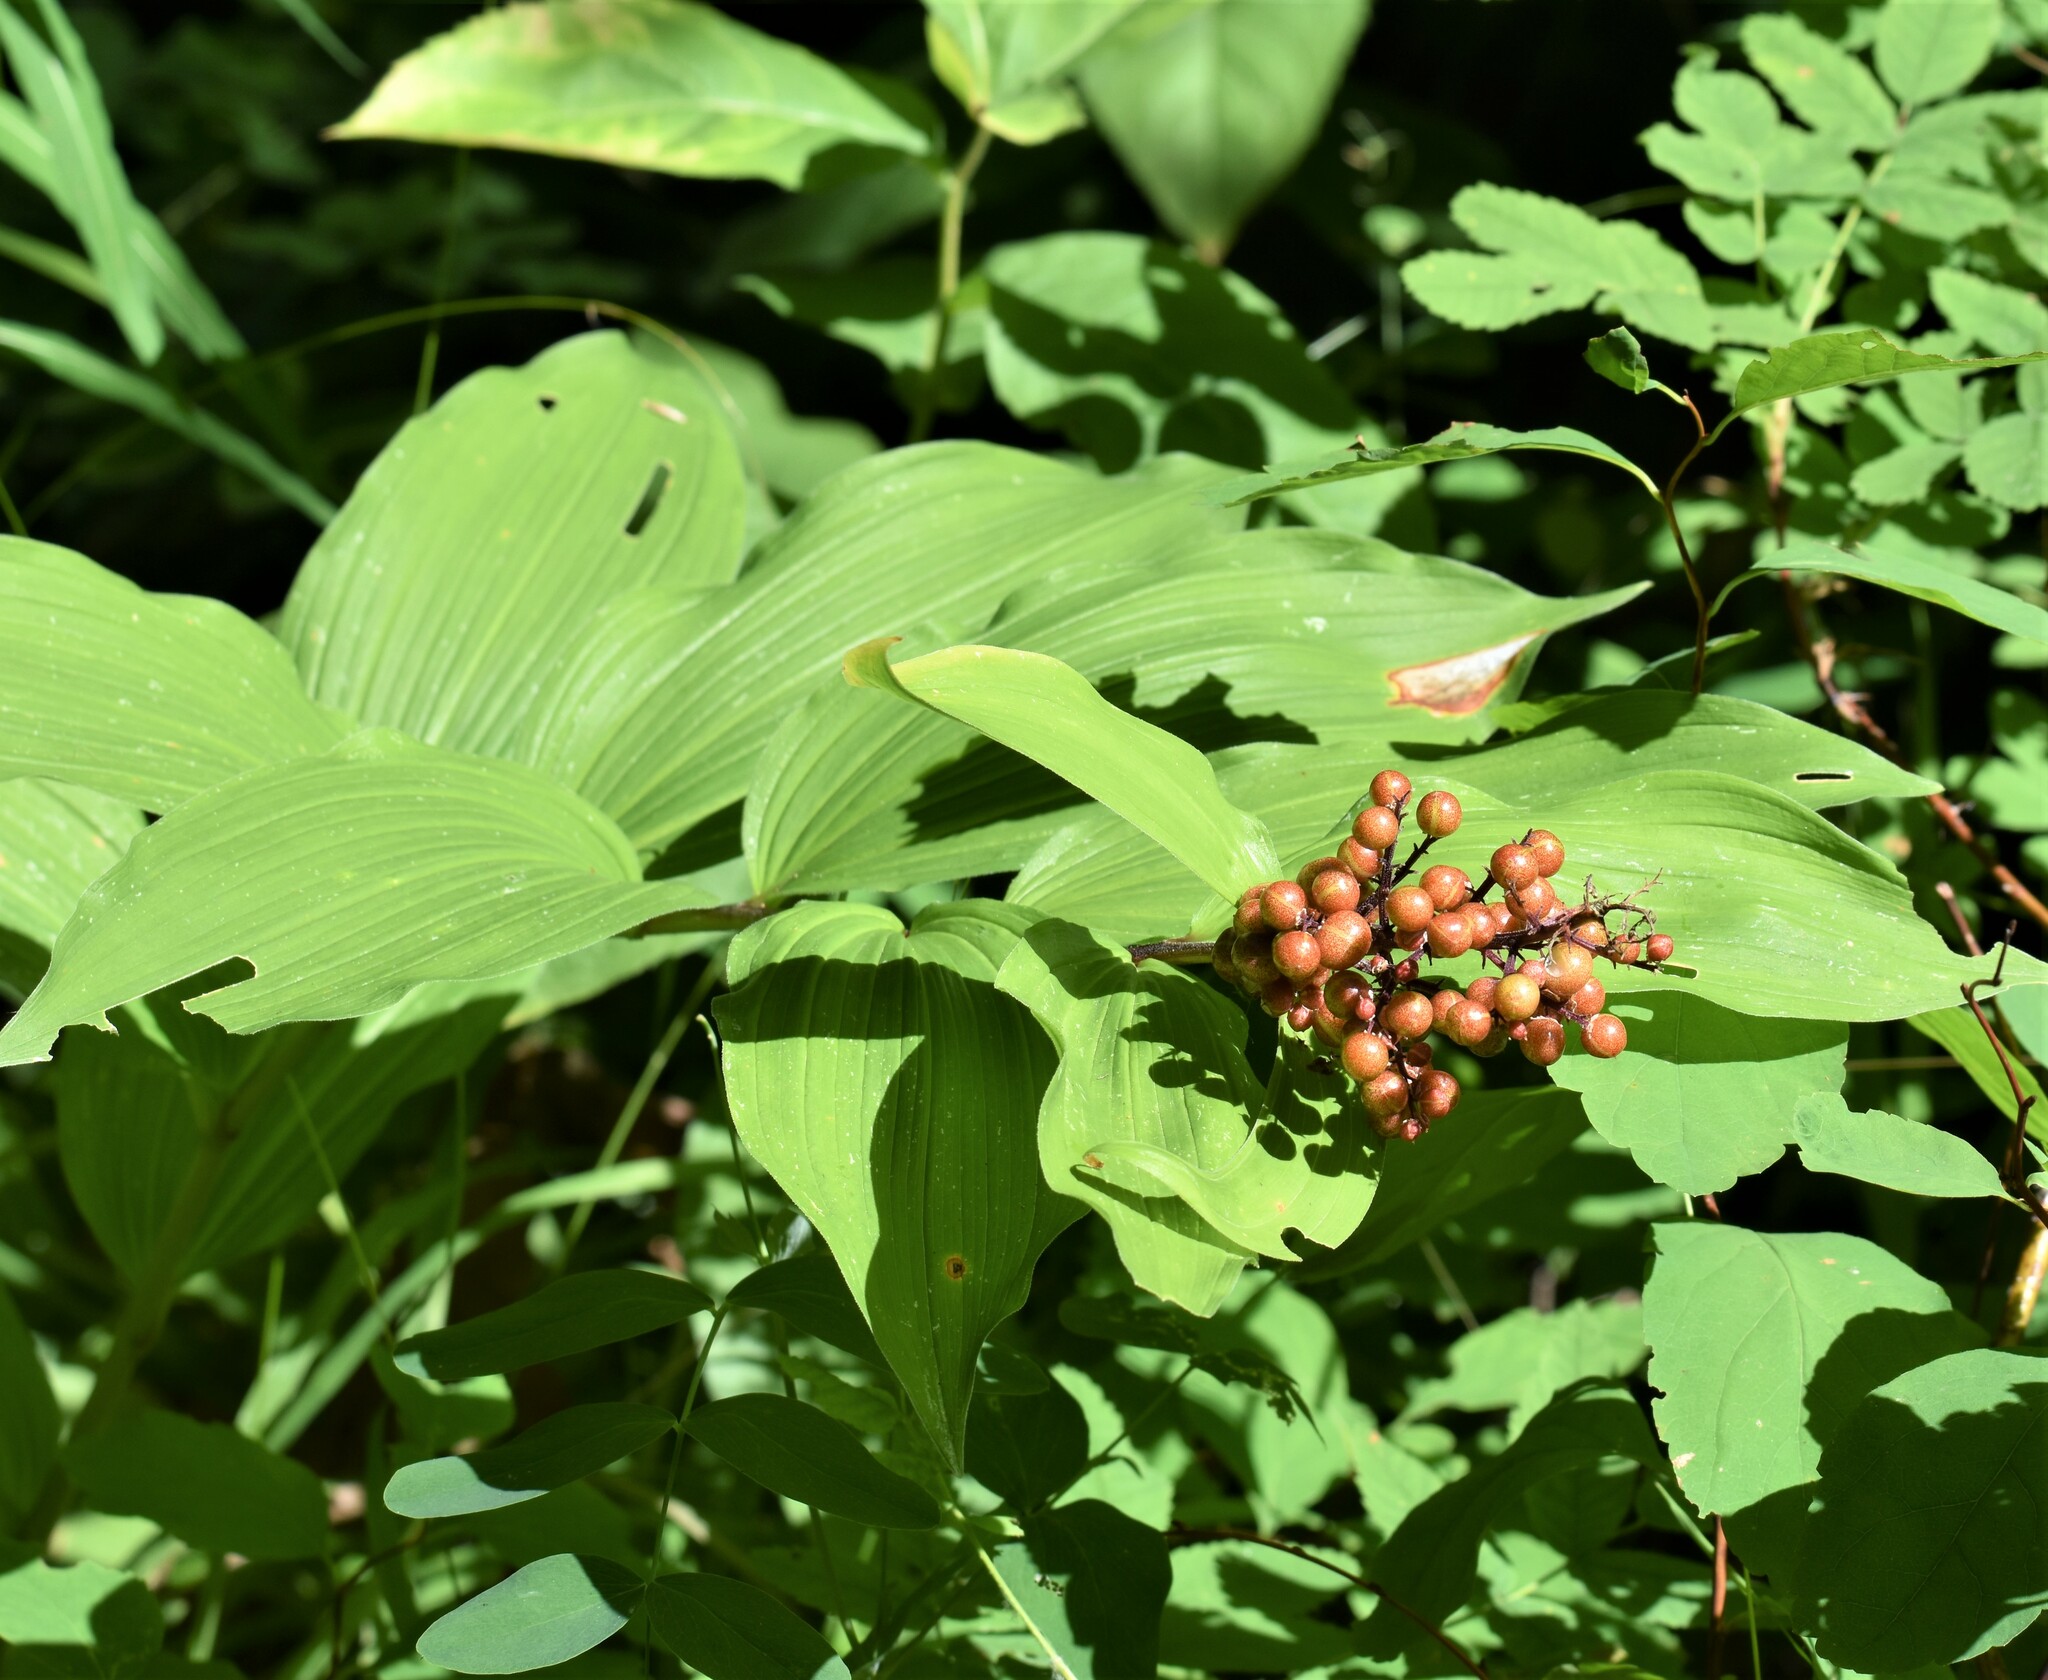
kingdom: Plantae
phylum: Tracheophyta
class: Liliopsida
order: Asparagales
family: Asparagaceae
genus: Maianthemum
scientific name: Maianthemum racemosum
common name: False spikenard
